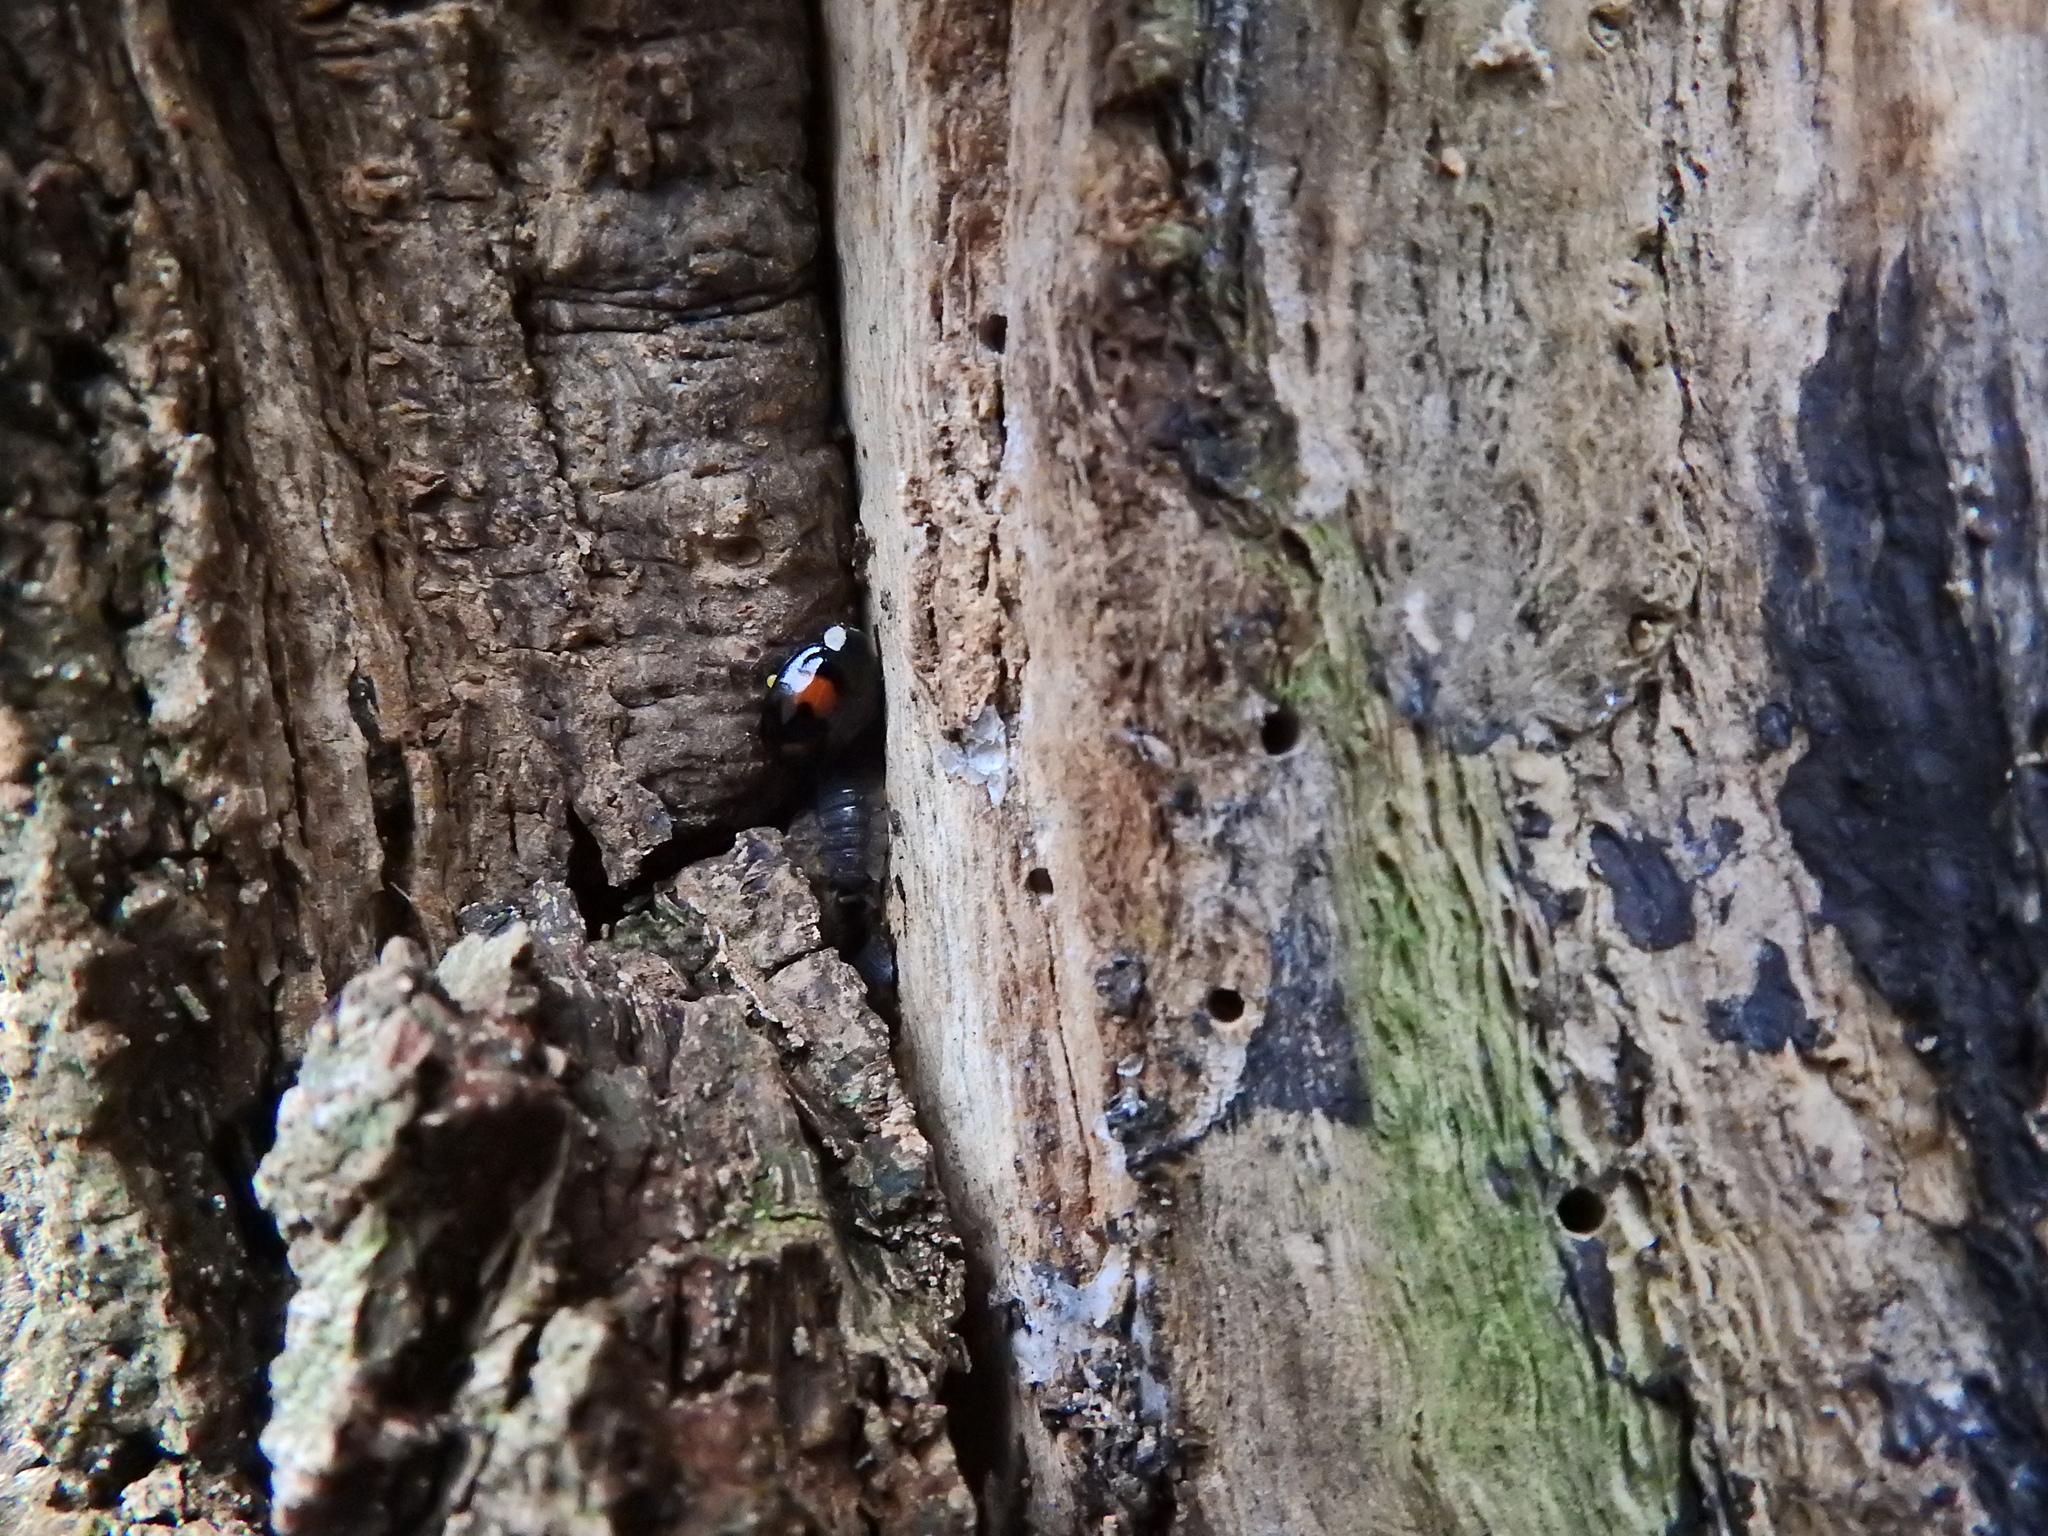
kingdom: Animalia
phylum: Arthropoda
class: Insecta
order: Coleoptera
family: Coccinellidae
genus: Harmonia
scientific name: Harmonia axyridis
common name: Harlequin ladybird
